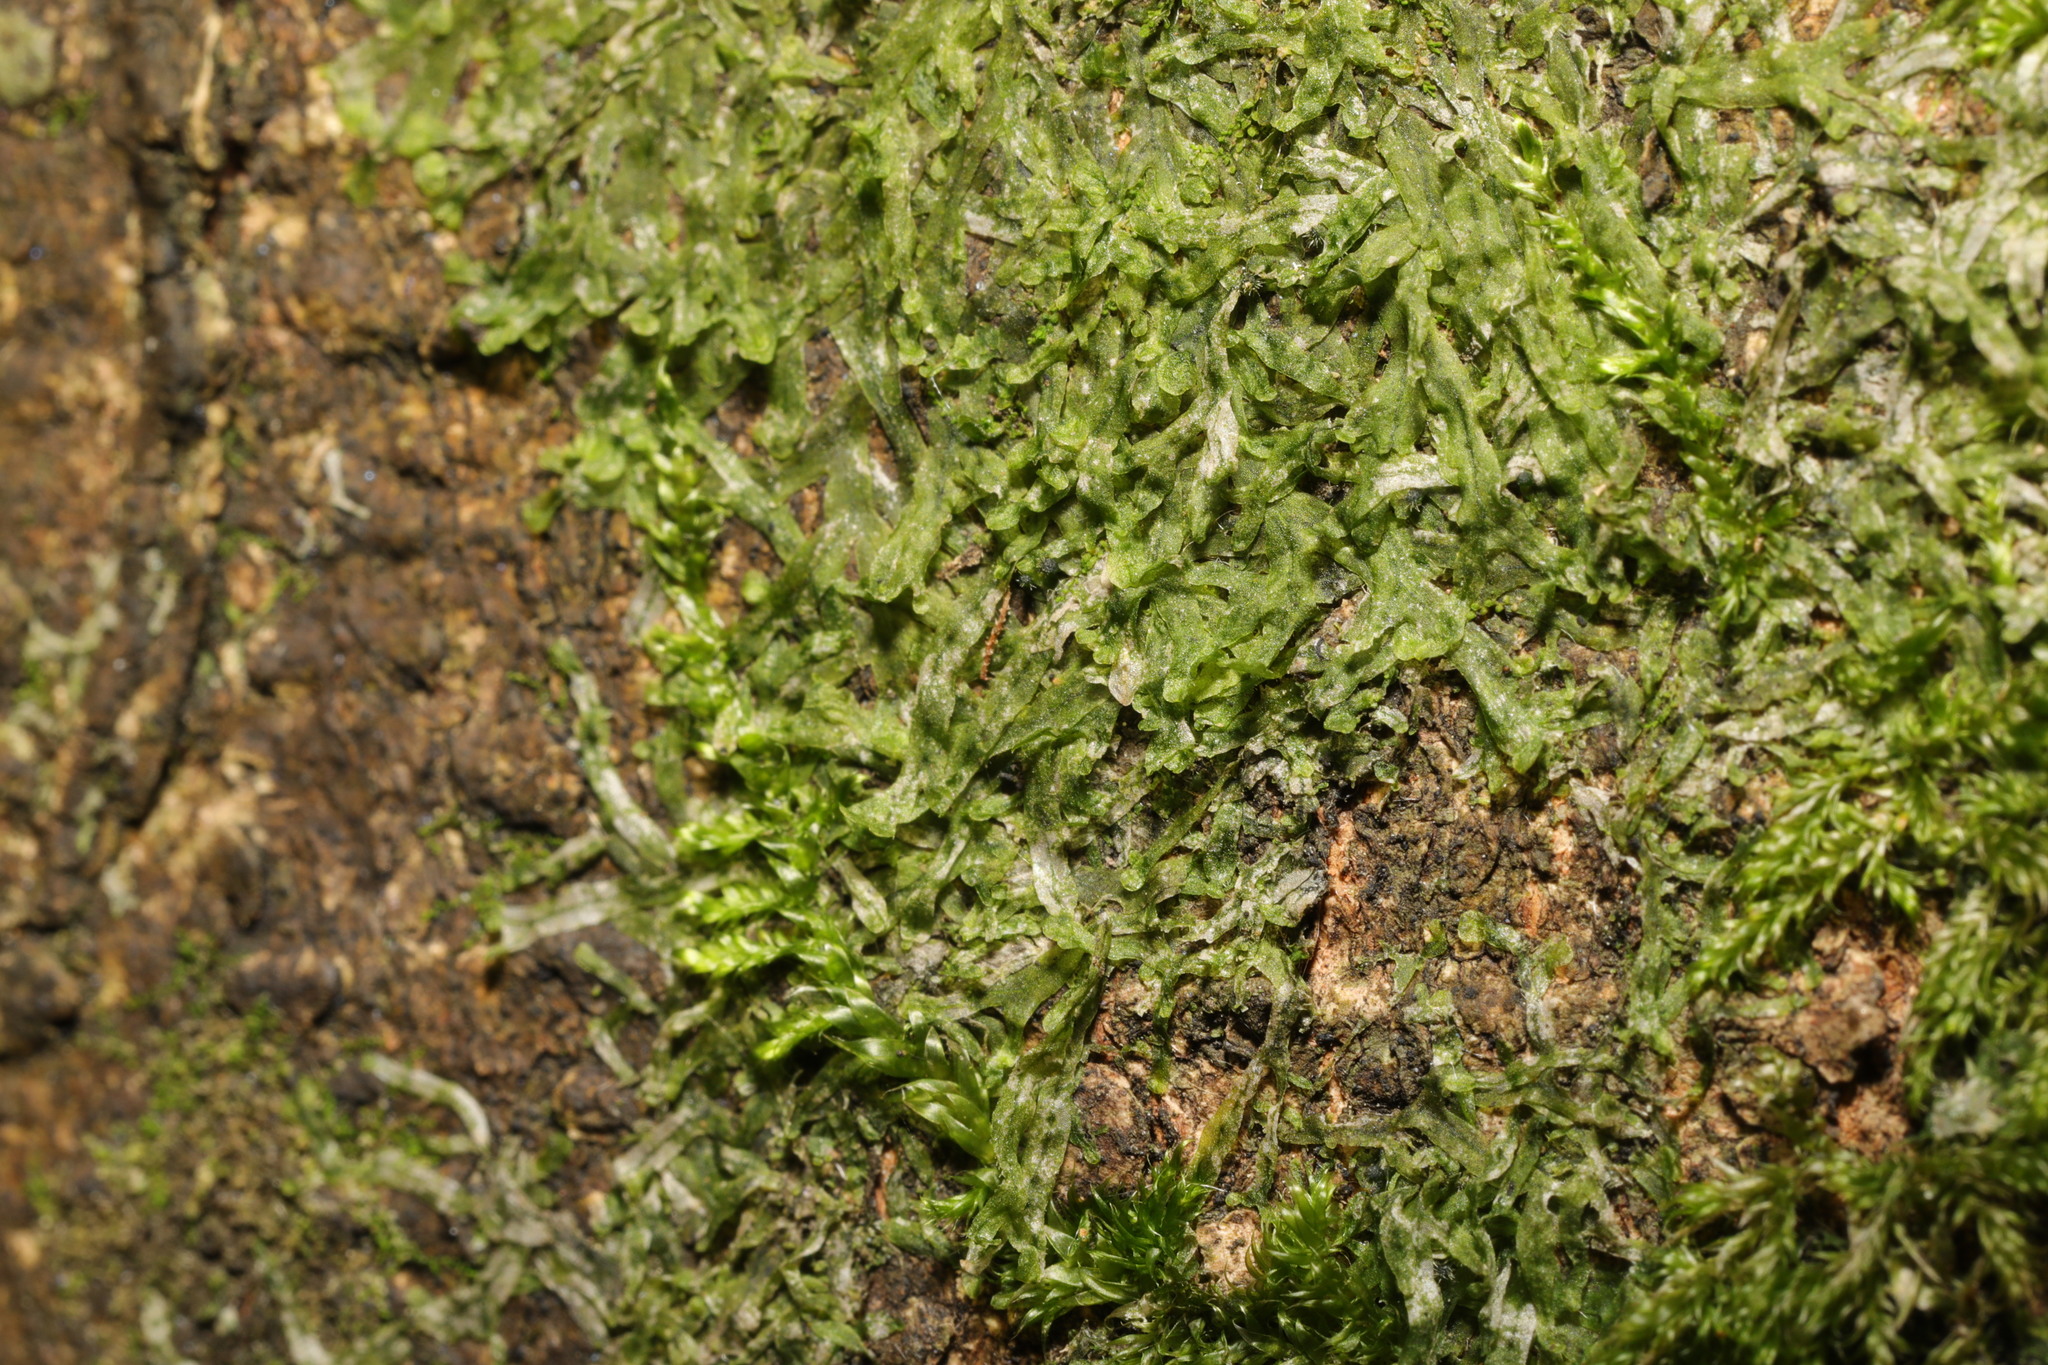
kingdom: Plantae
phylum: Marchantiophyta
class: Jungermanniopsida
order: Metzgeriales
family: Metzgeriaceae
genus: Metzgeria
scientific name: Metzgeria furcata
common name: Forked veilwort
